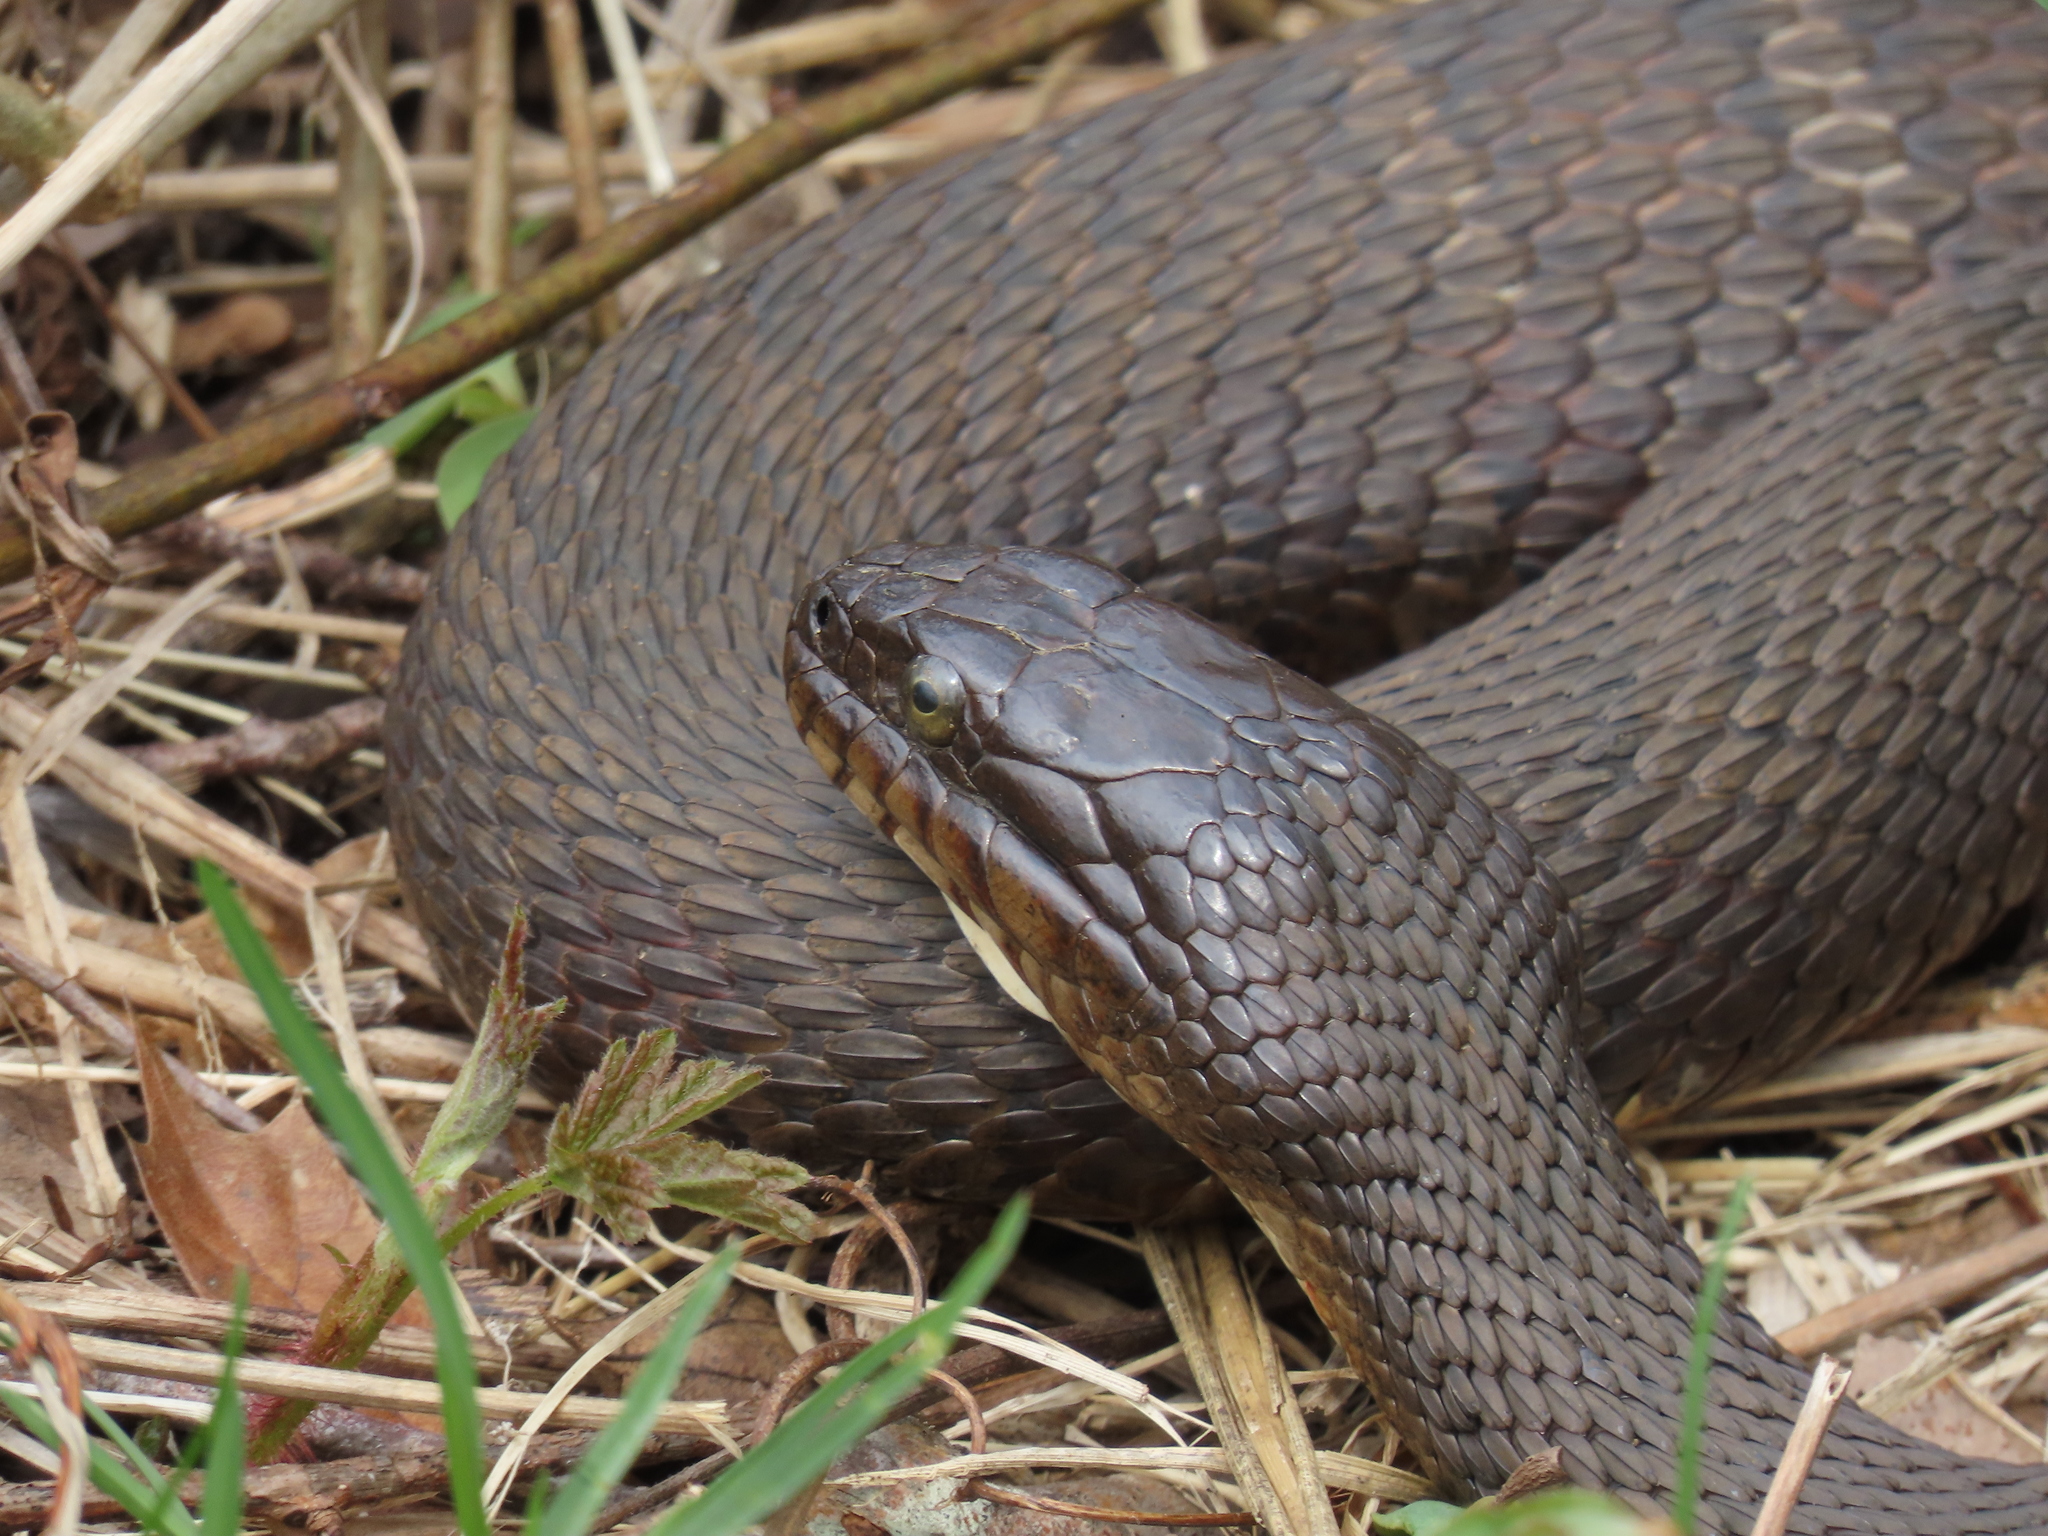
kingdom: Animalia
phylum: Chordata
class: Squamata
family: Colubridae
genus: Nerodia
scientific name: Nerodia sipedon
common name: Northern water snake
